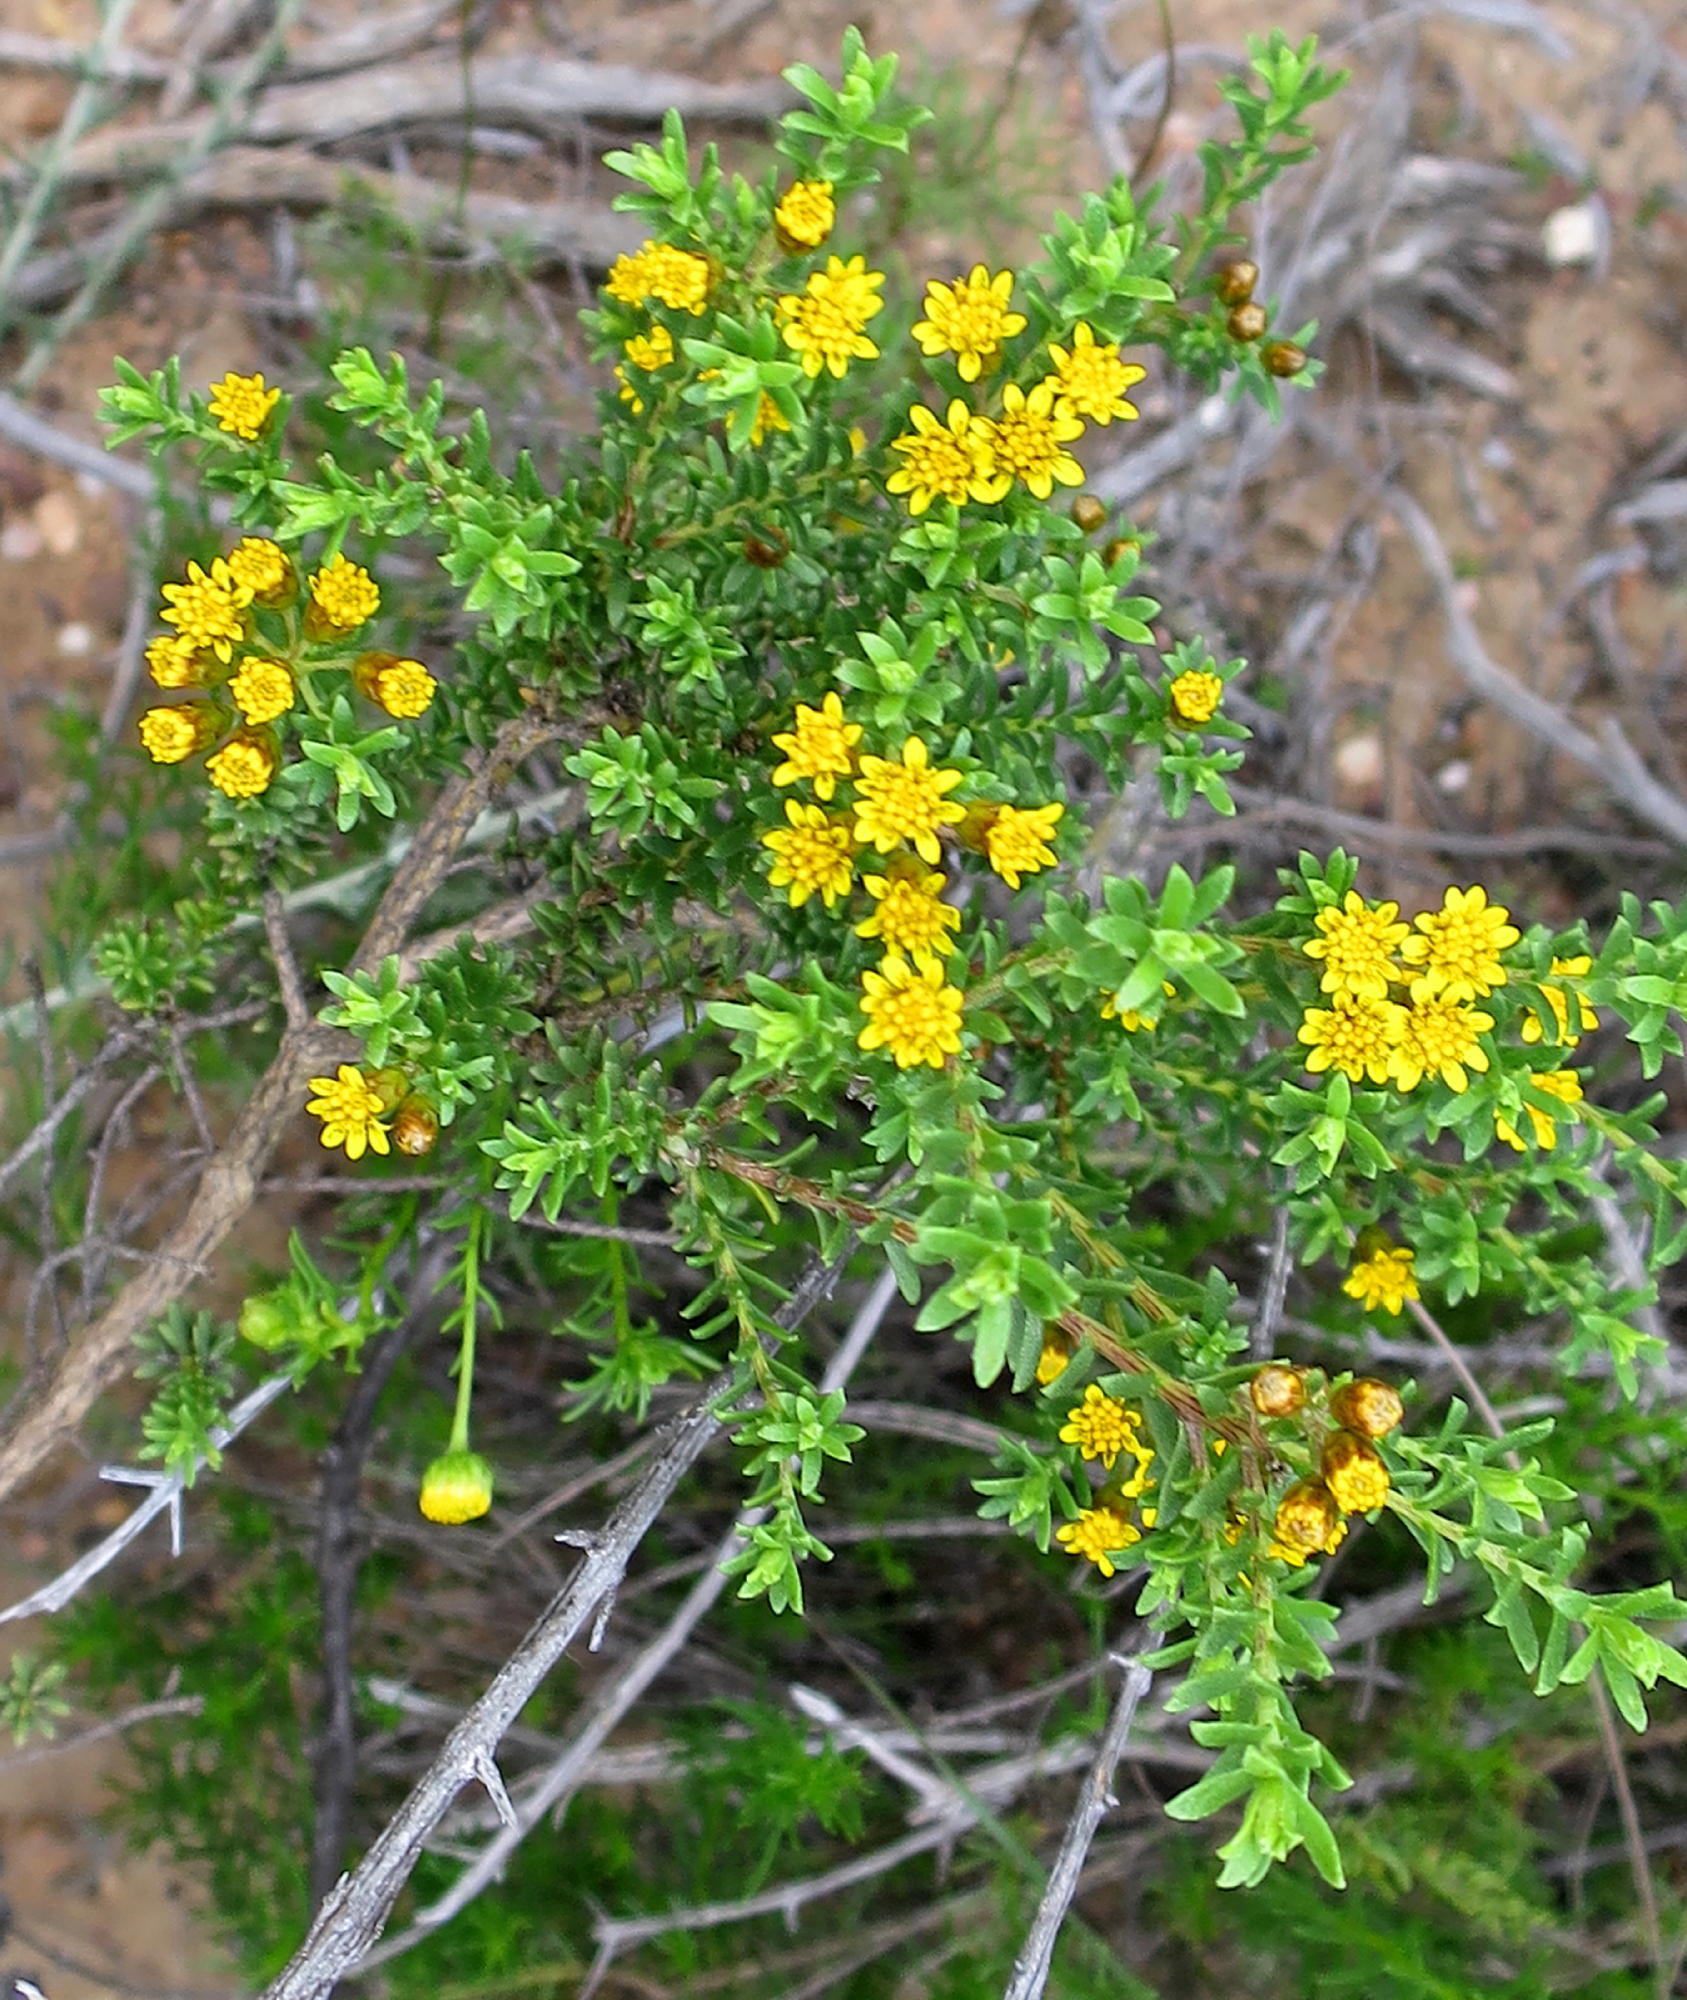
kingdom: Plantae
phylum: Tracheophyta
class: Magnoliopsida
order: Asterales
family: Asteraceae
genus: Oedera
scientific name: Oedera genistifolia
